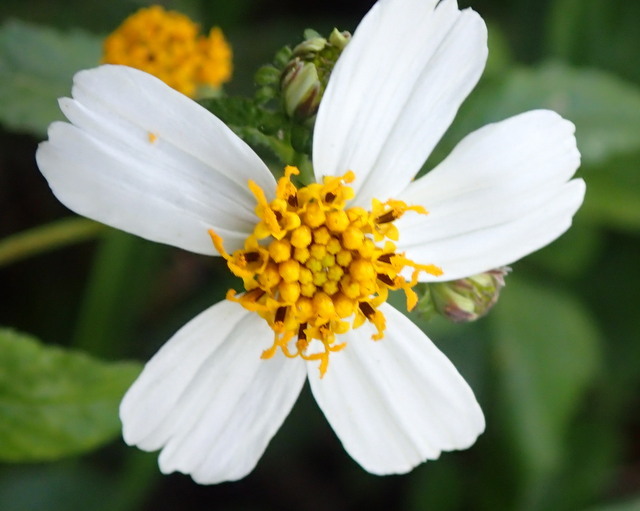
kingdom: Plantae
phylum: Tracheophyta
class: Magnoliopsida
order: Asterales
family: Asteraceae
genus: Bidens
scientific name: Bidens alba
